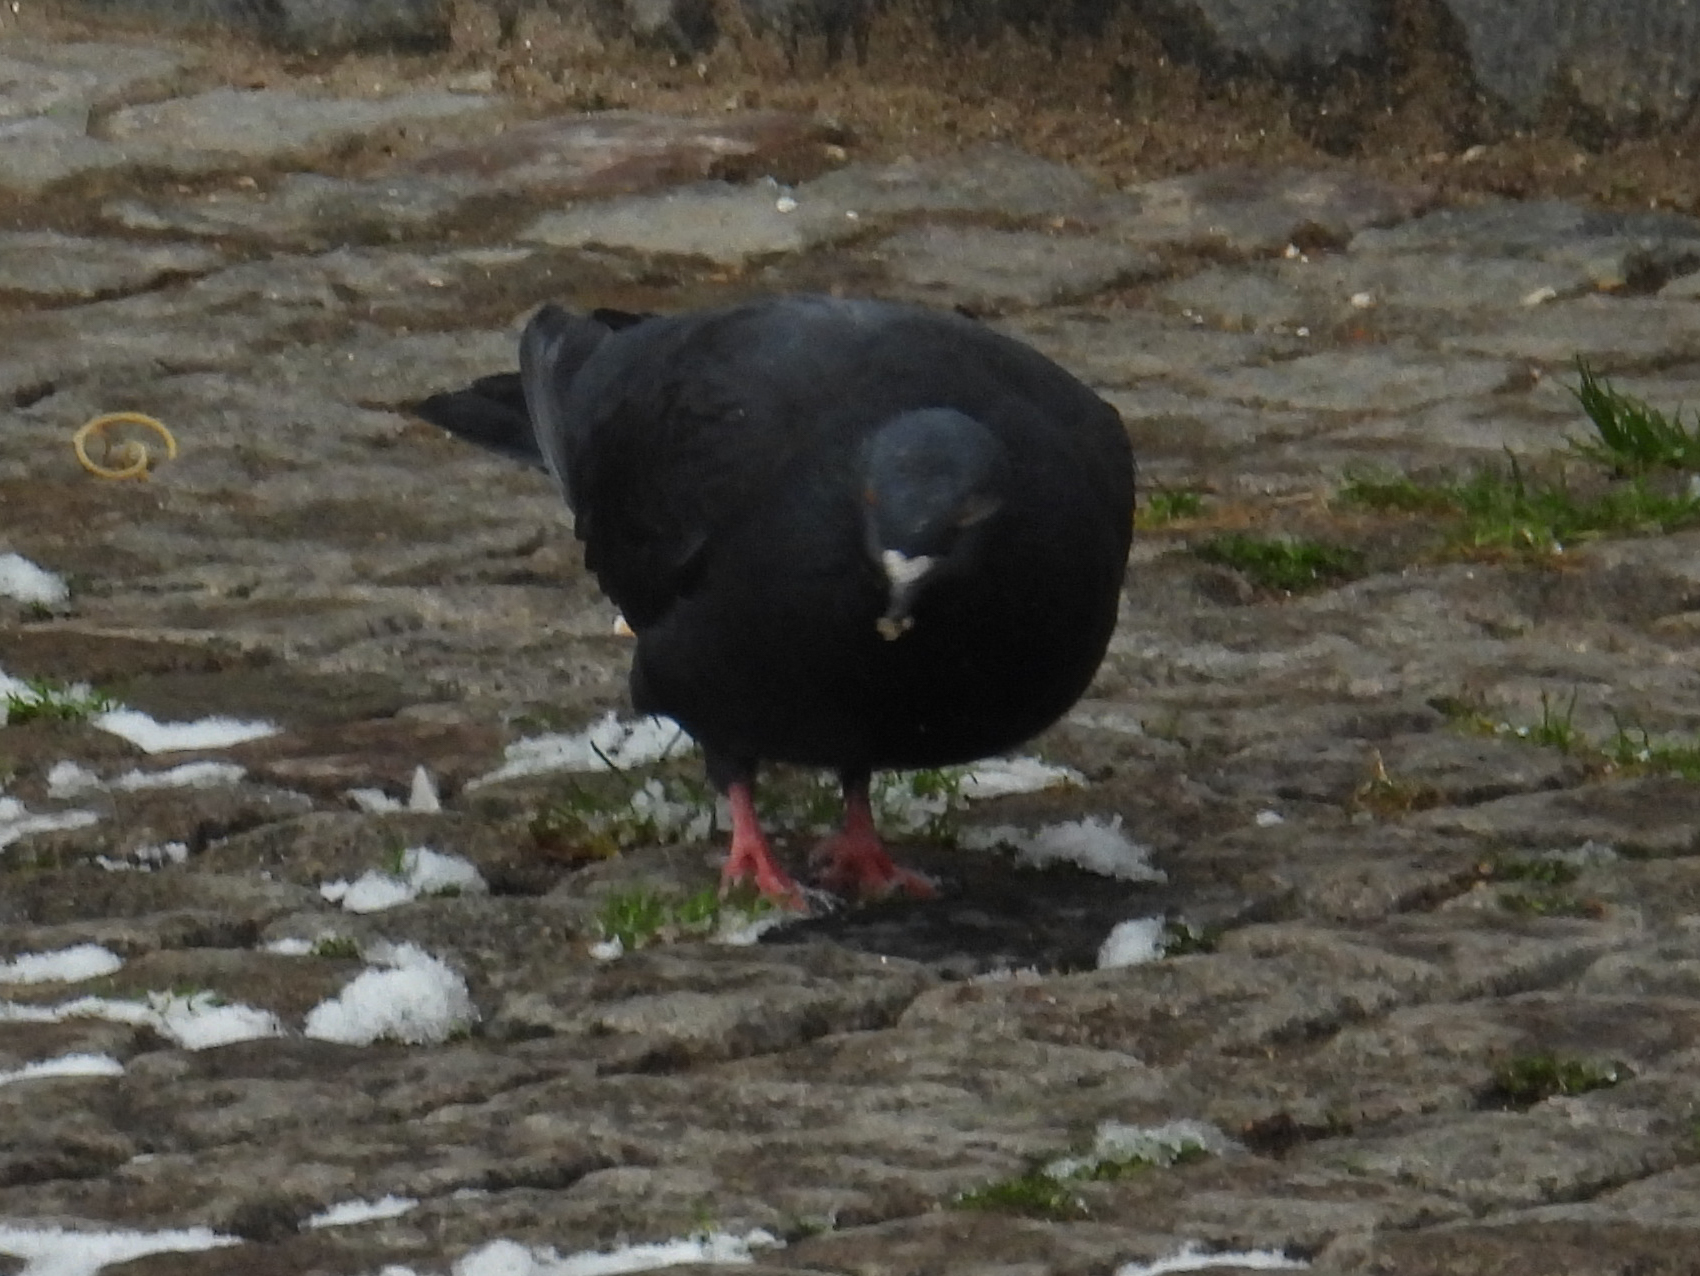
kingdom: Animalia
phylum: Chordata
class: Aves
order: Columbiformes
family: Columbidae
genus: Columba
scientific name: Columba livia
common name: Rock pigeon
